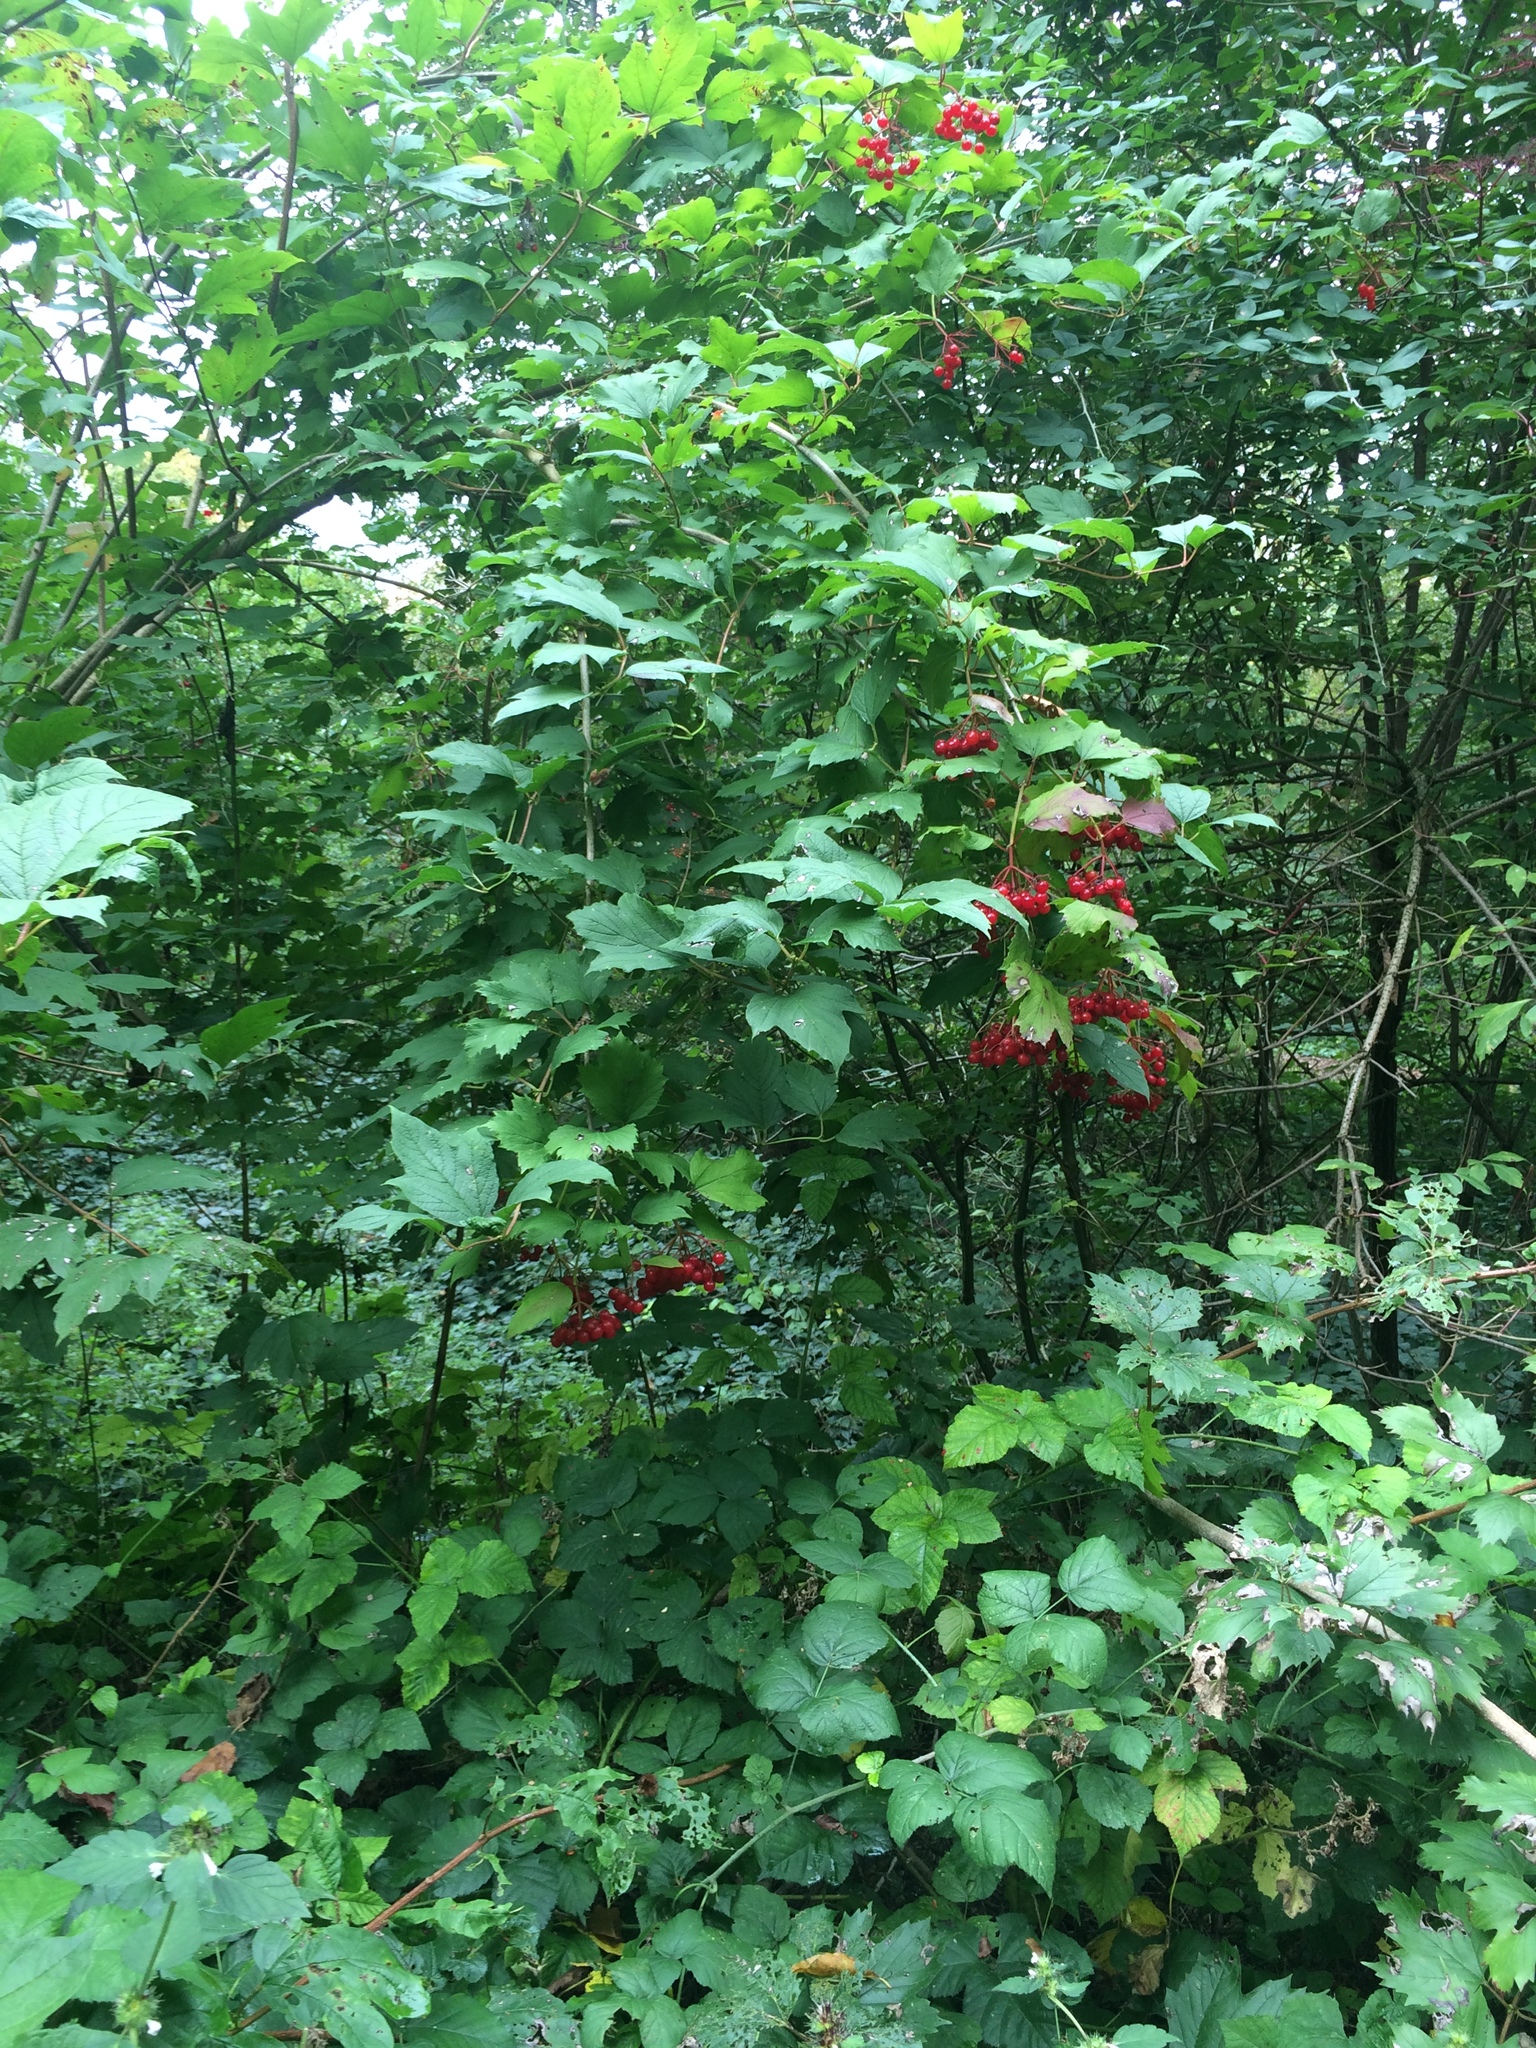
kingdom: Plantae
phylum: Tracheophyta
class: Magnoliopsida
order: Dipsacales
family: Viburnaceae
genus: Viburnum
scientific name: Viburnum opulus
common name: Guelder-rose
